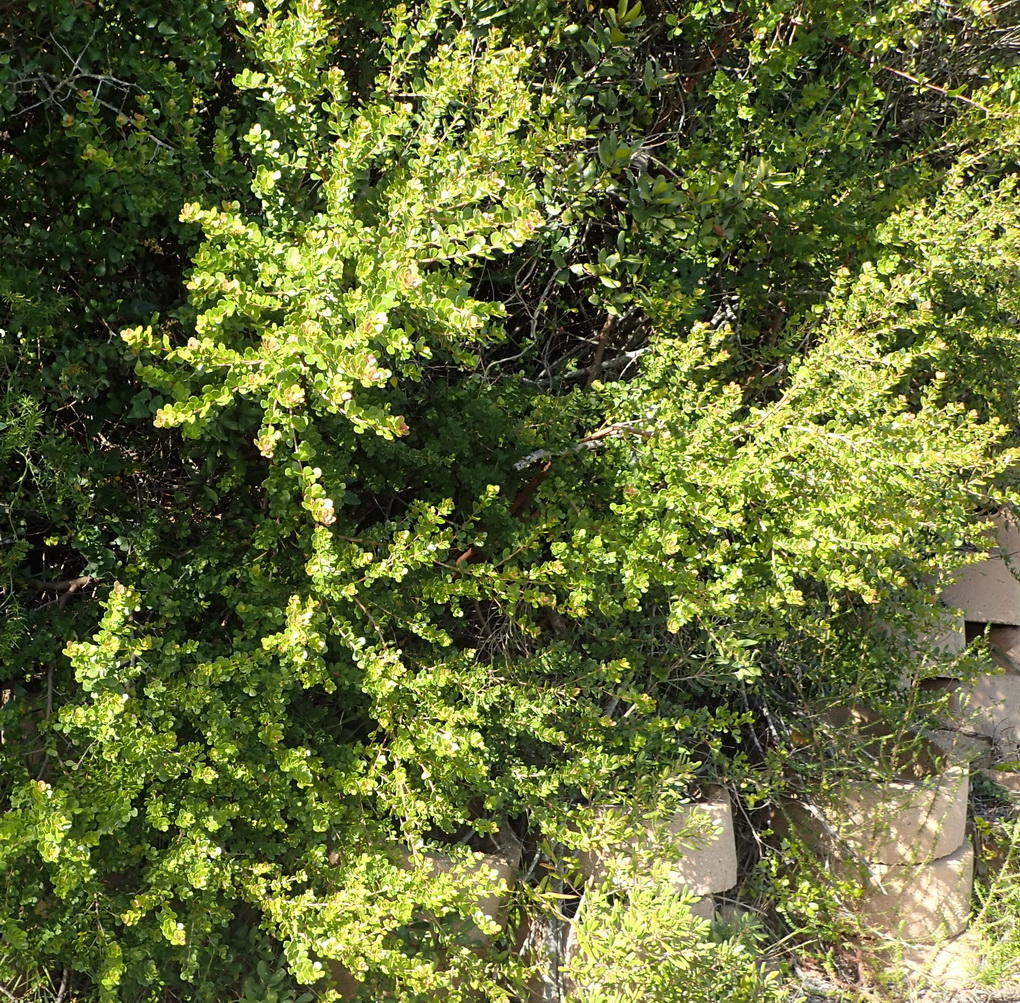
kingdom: Plantae
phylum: Tracheophyta
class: Magnoliopsida
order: Sapindales
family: Anacardiaceae
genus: Searsia
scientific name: Searsia crenata
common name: Crowberry
